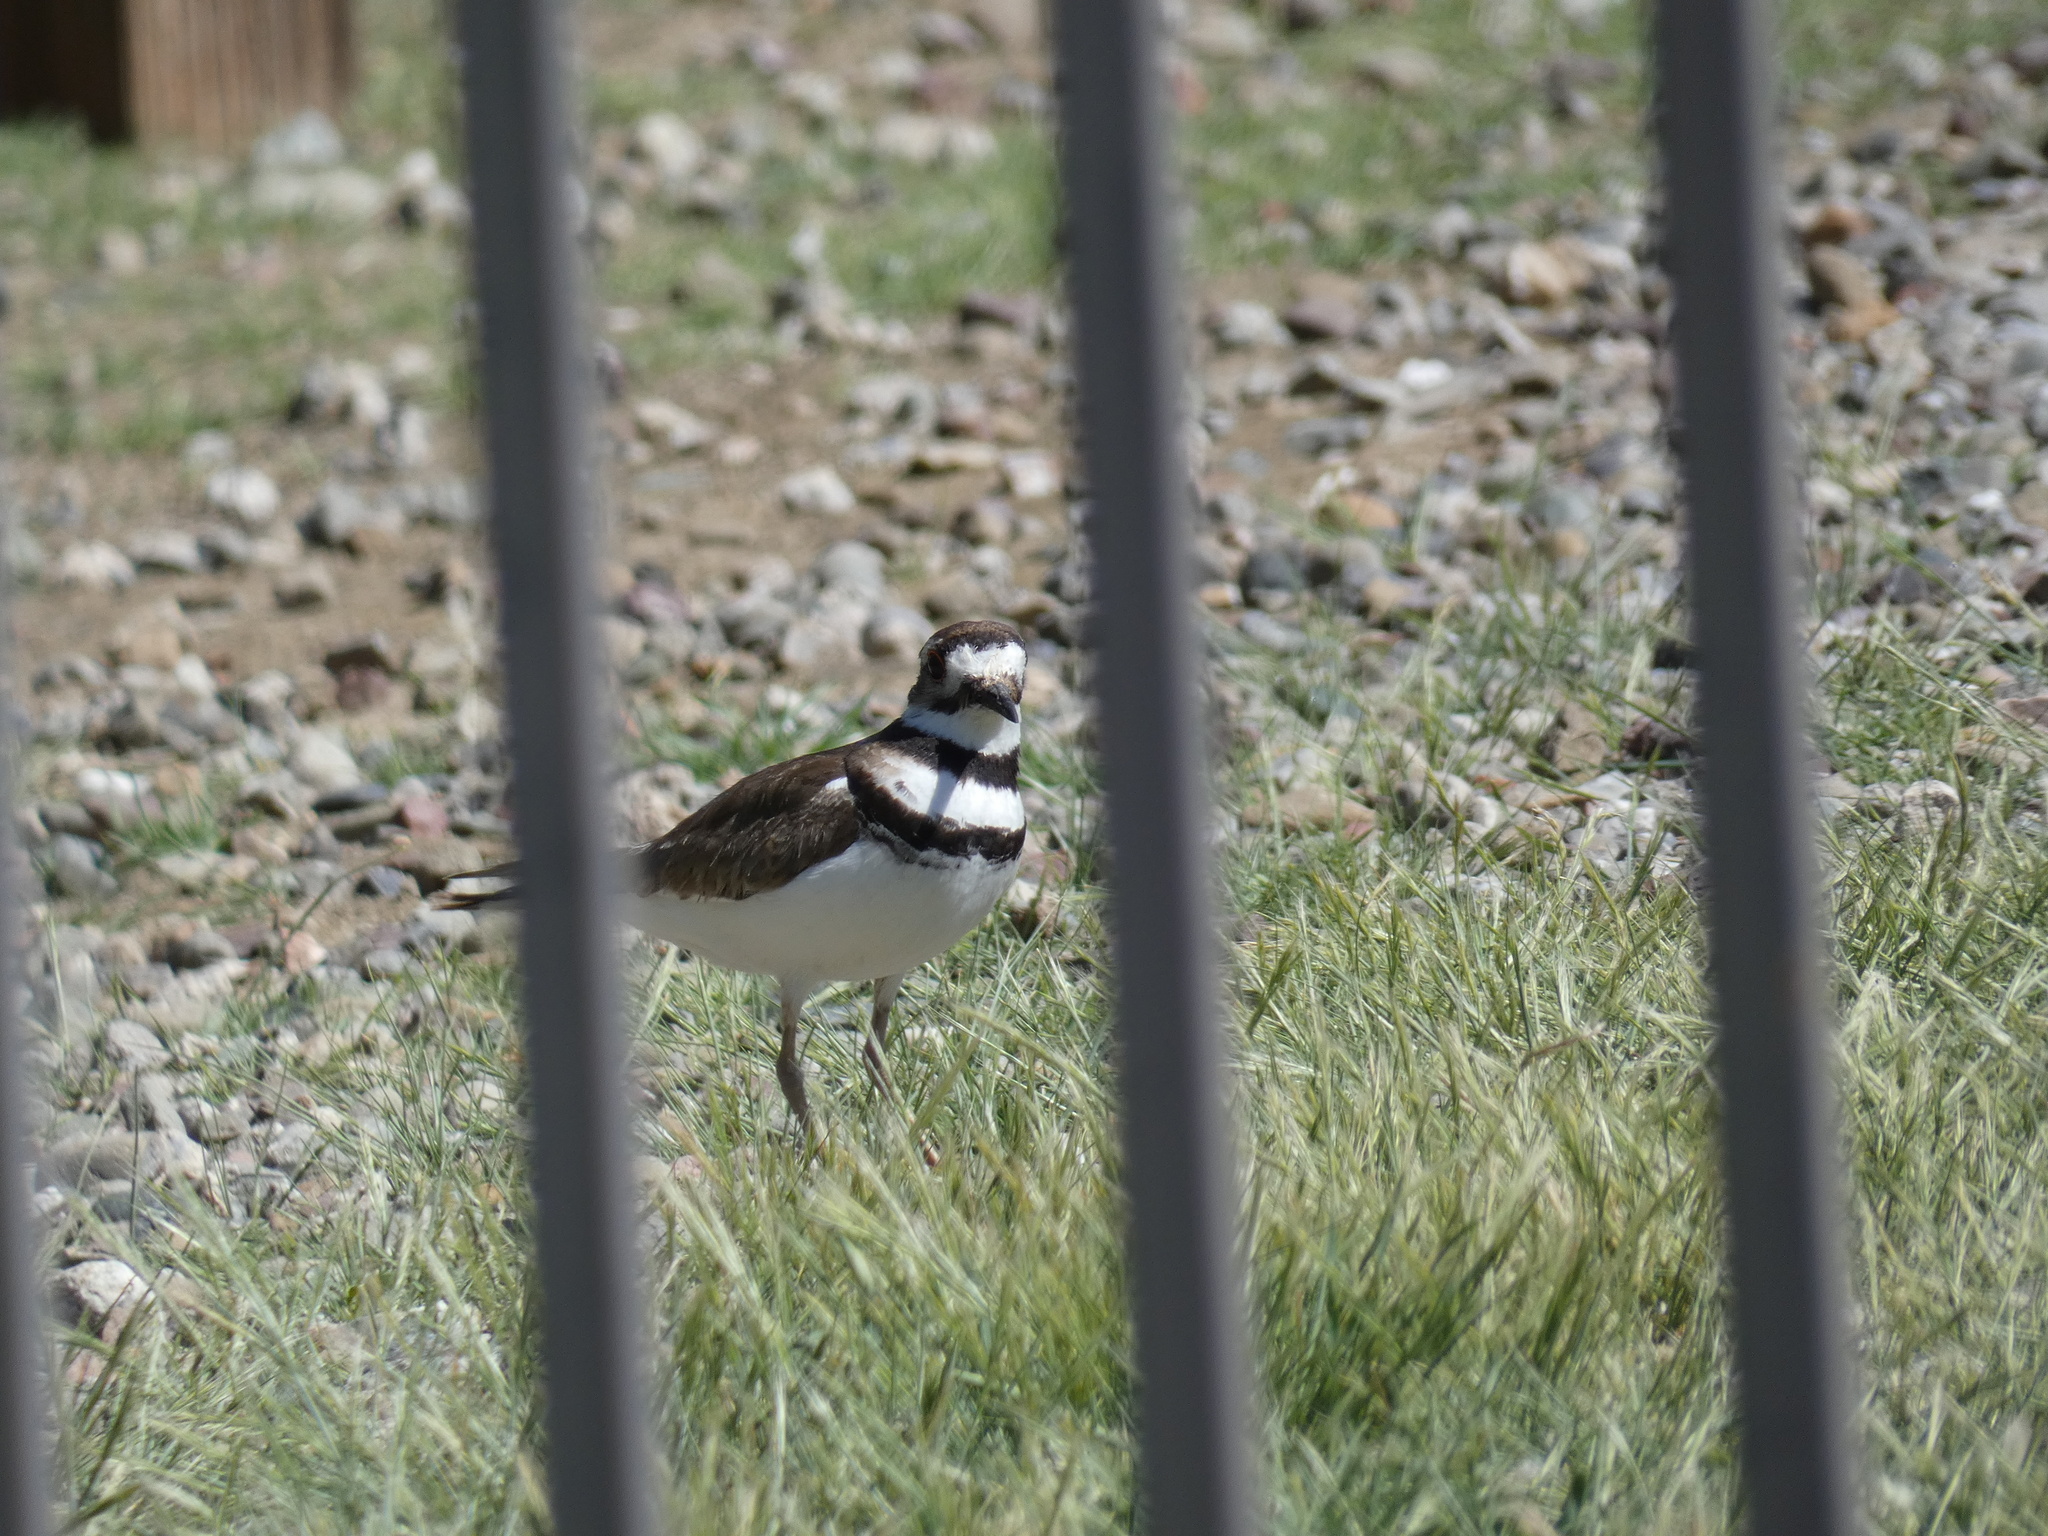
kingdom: Animalia
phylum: Chordata
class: Aves
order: Charadriiformes
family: Charadriidae
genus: Charadrius
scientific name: Charadrius vociferus
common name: Killdeer
